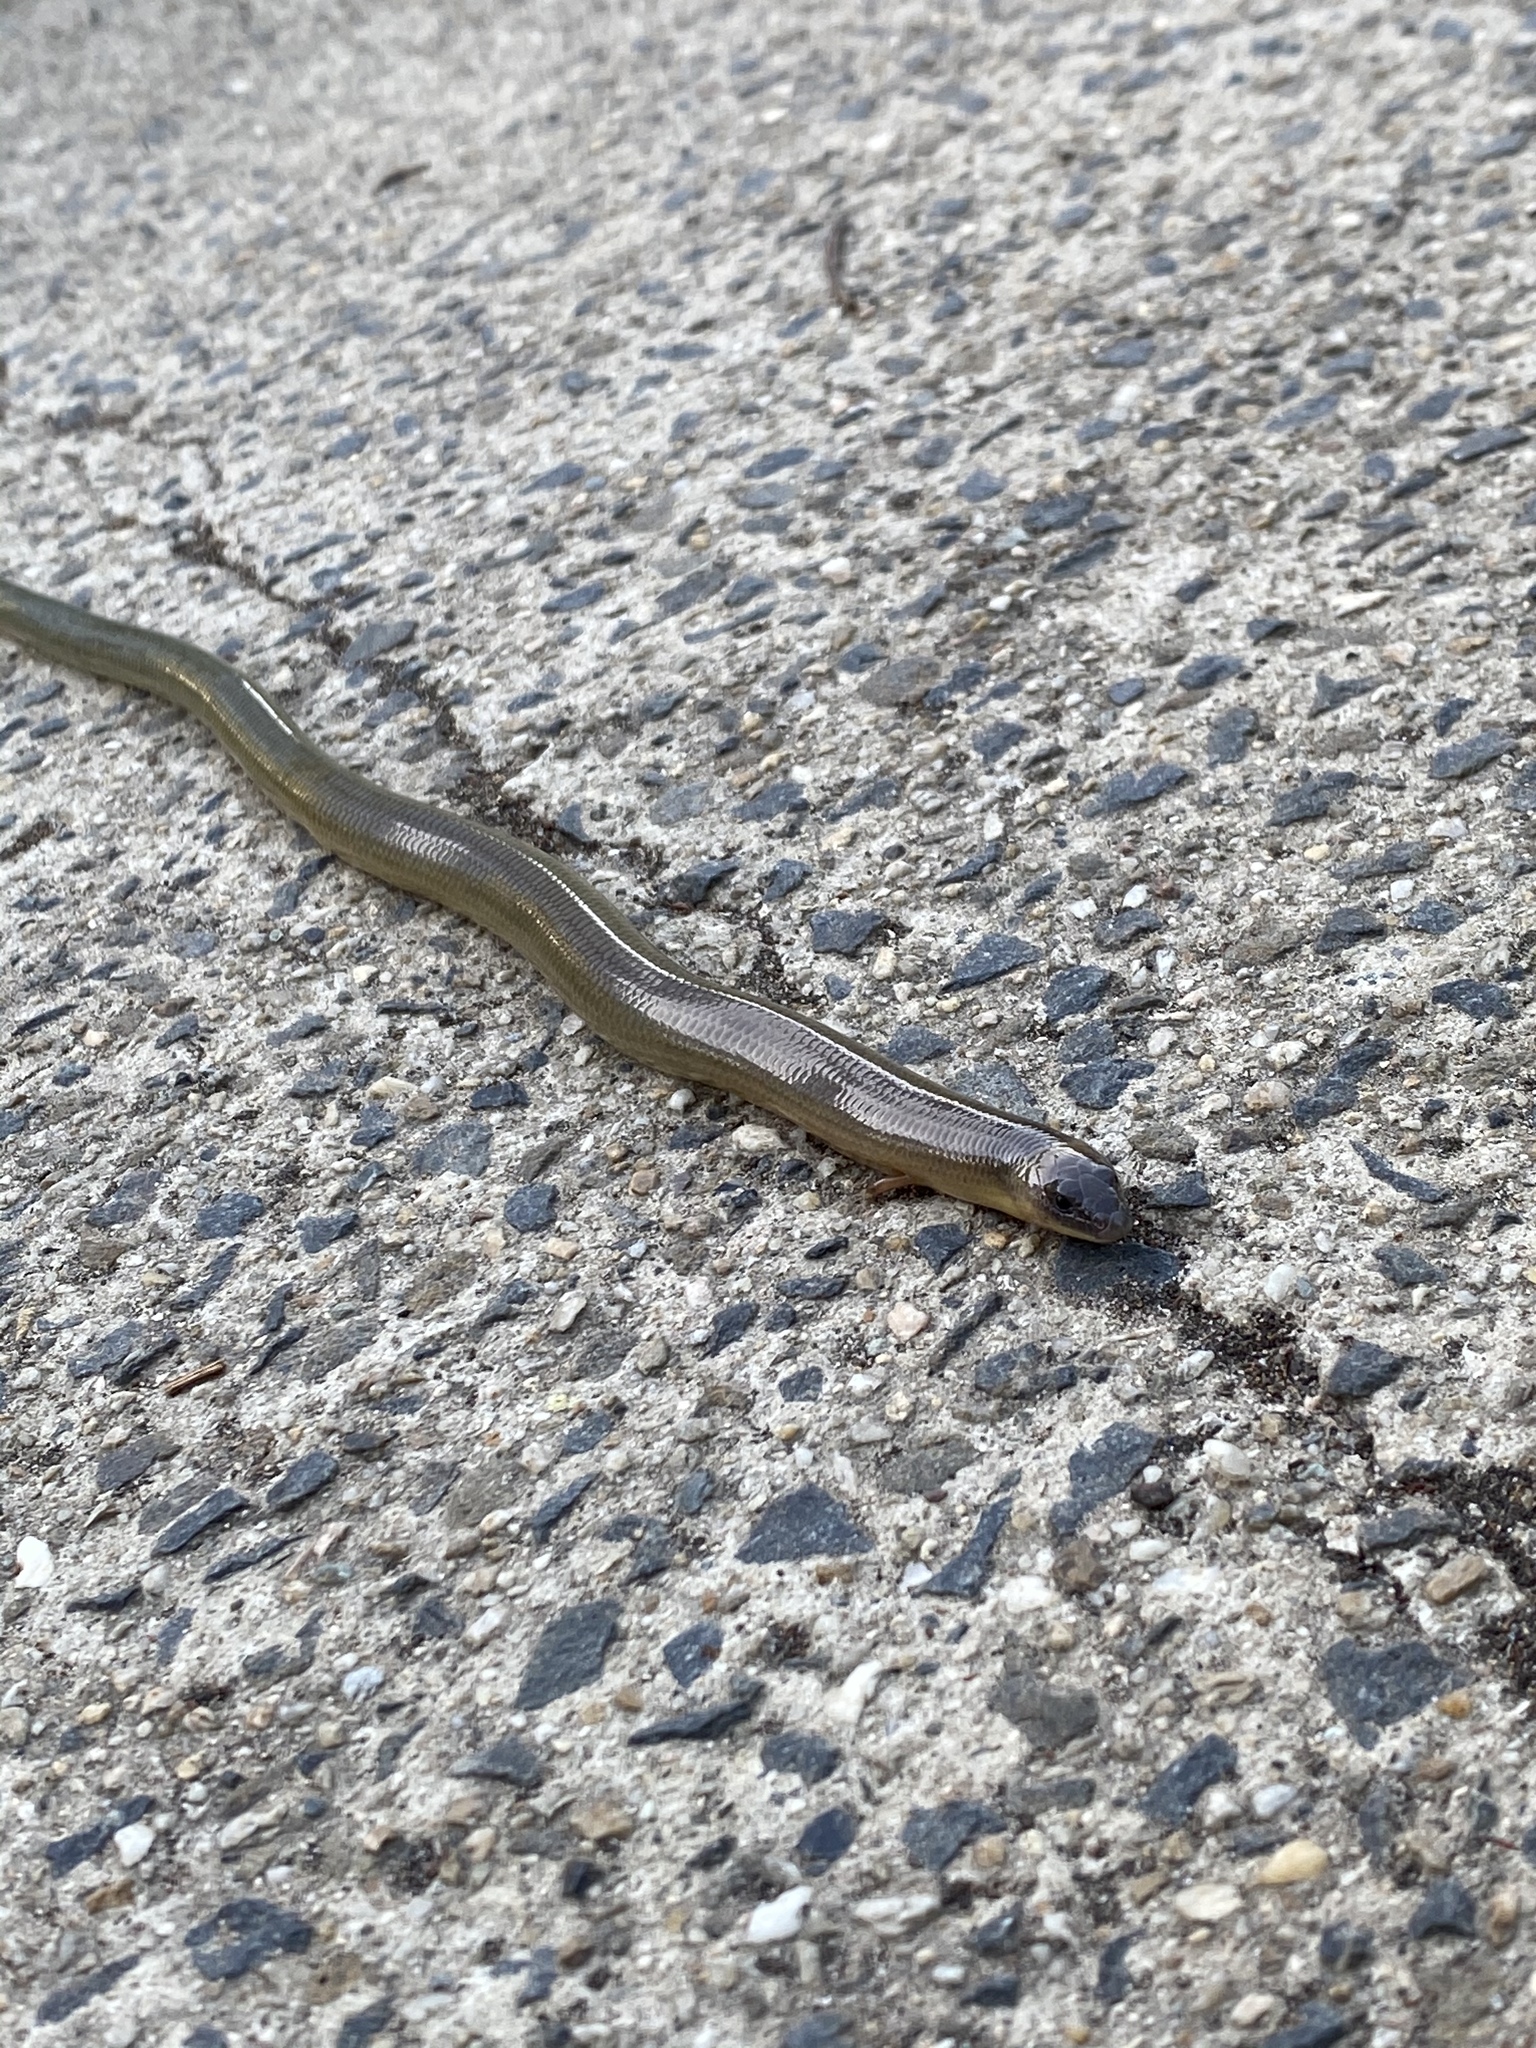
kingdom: Animalia
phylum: Chordata
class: Squamata
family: Scincidae
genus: Anomalopus
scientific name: Anomalopus verreauxii
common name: Three-clawed worm-skink
